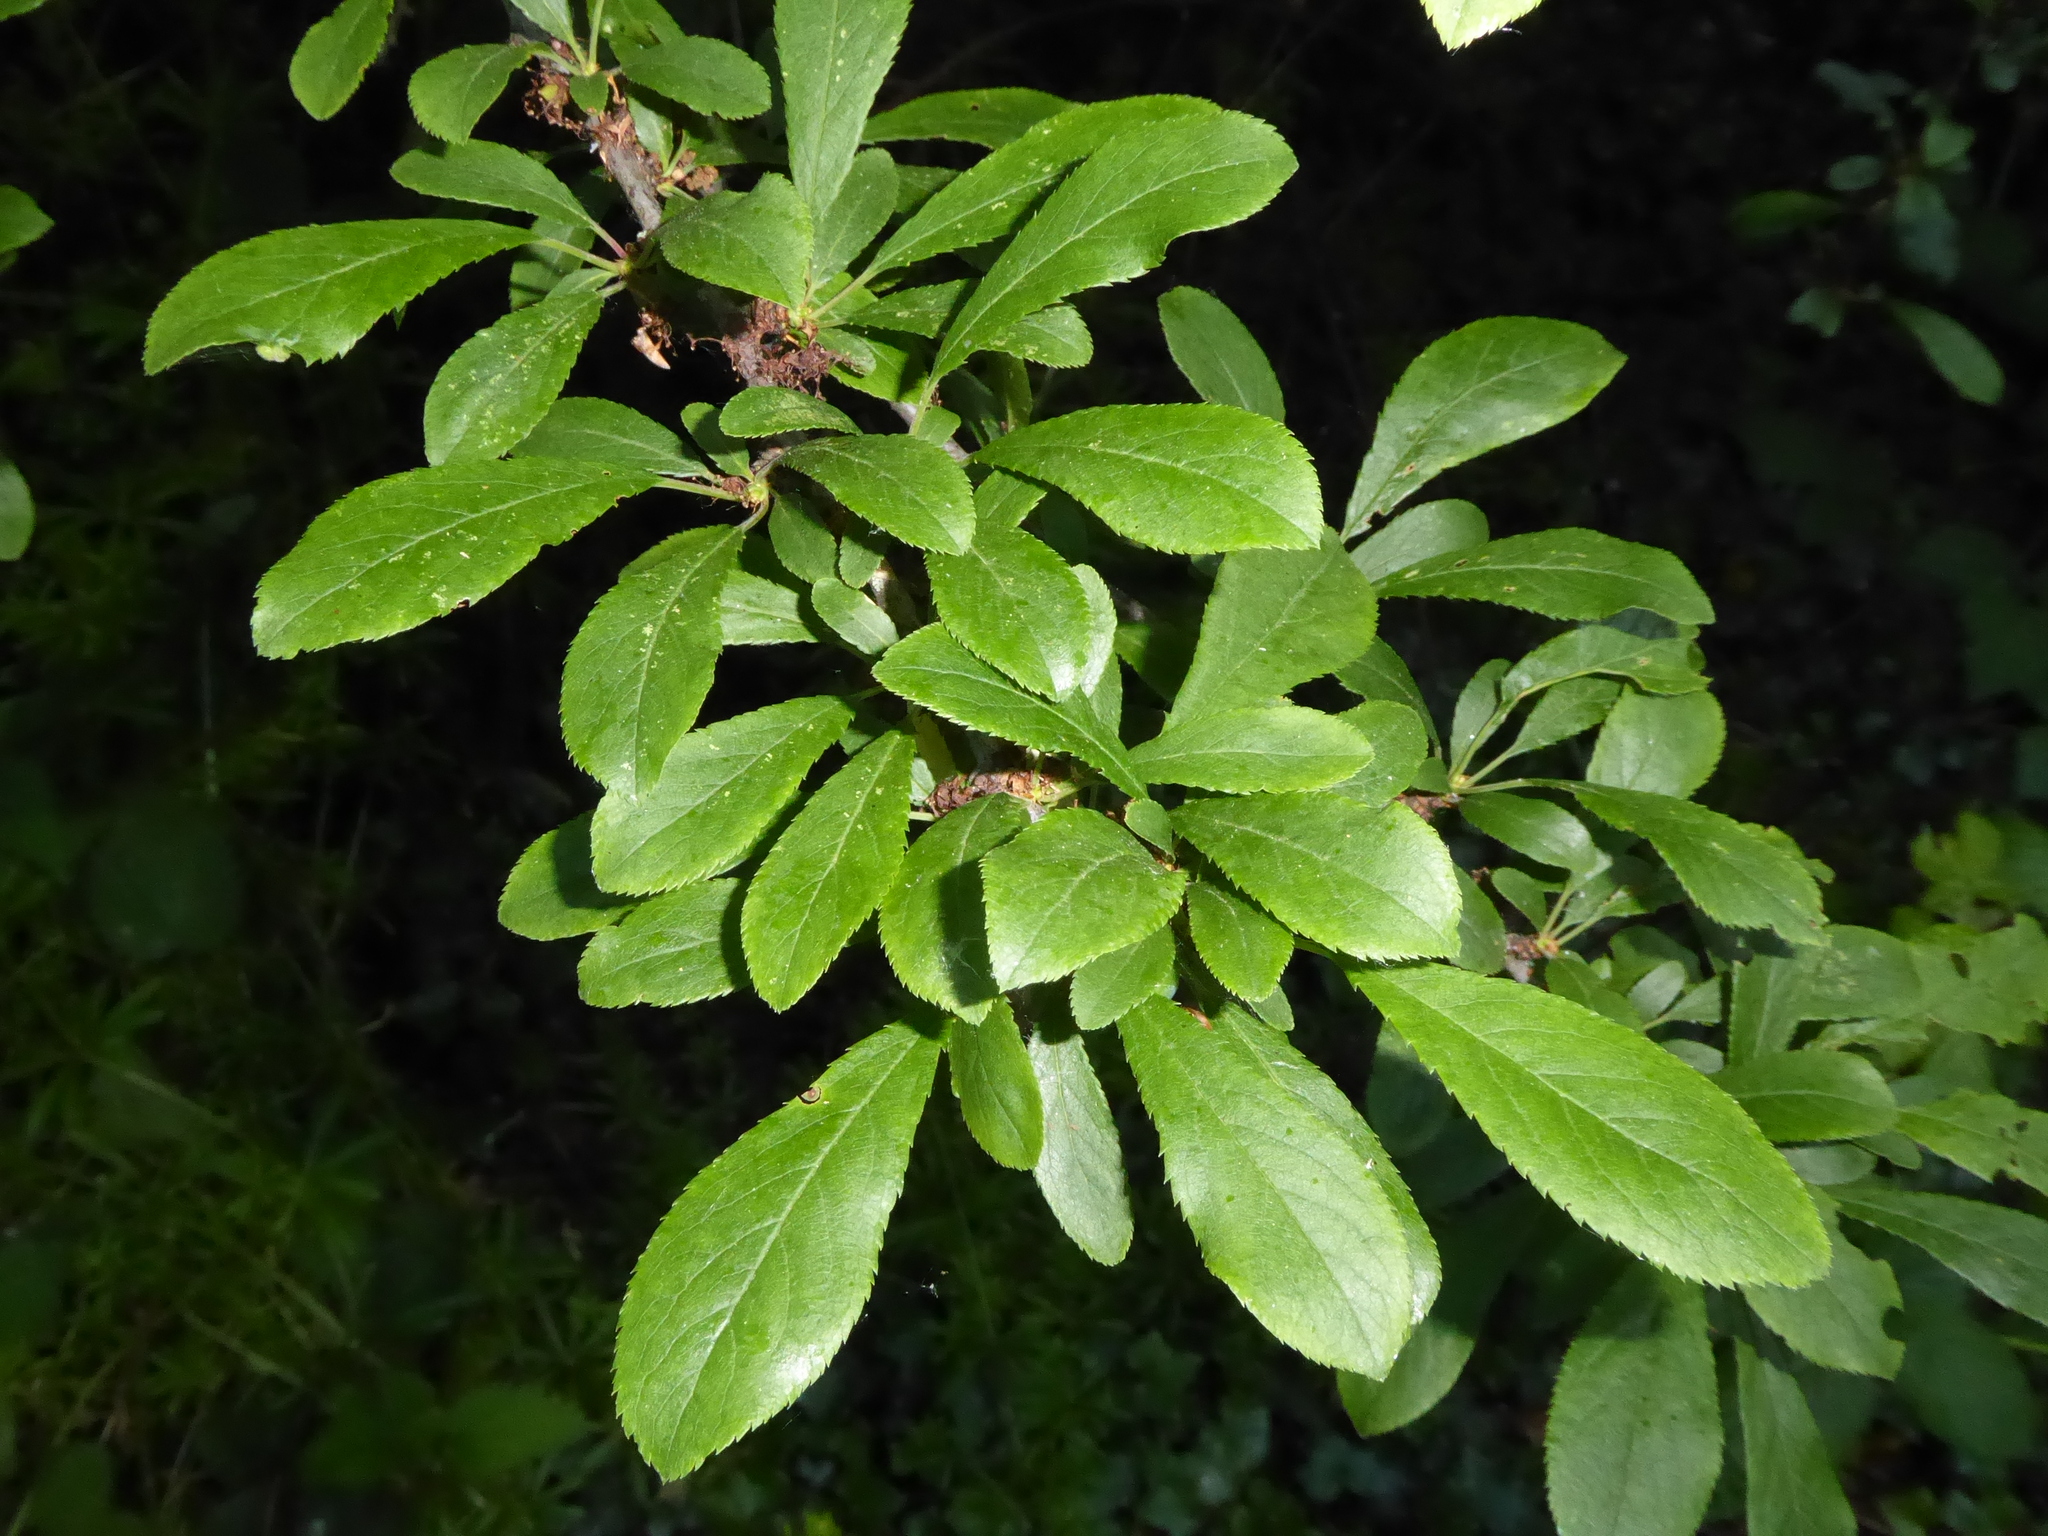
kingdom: Plantae
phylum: Tracheophyta
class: Magnoliopsida
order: Rosales
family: Rosaceae
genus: Prunus
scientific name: Prunus spinosa
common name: Blackthorn
